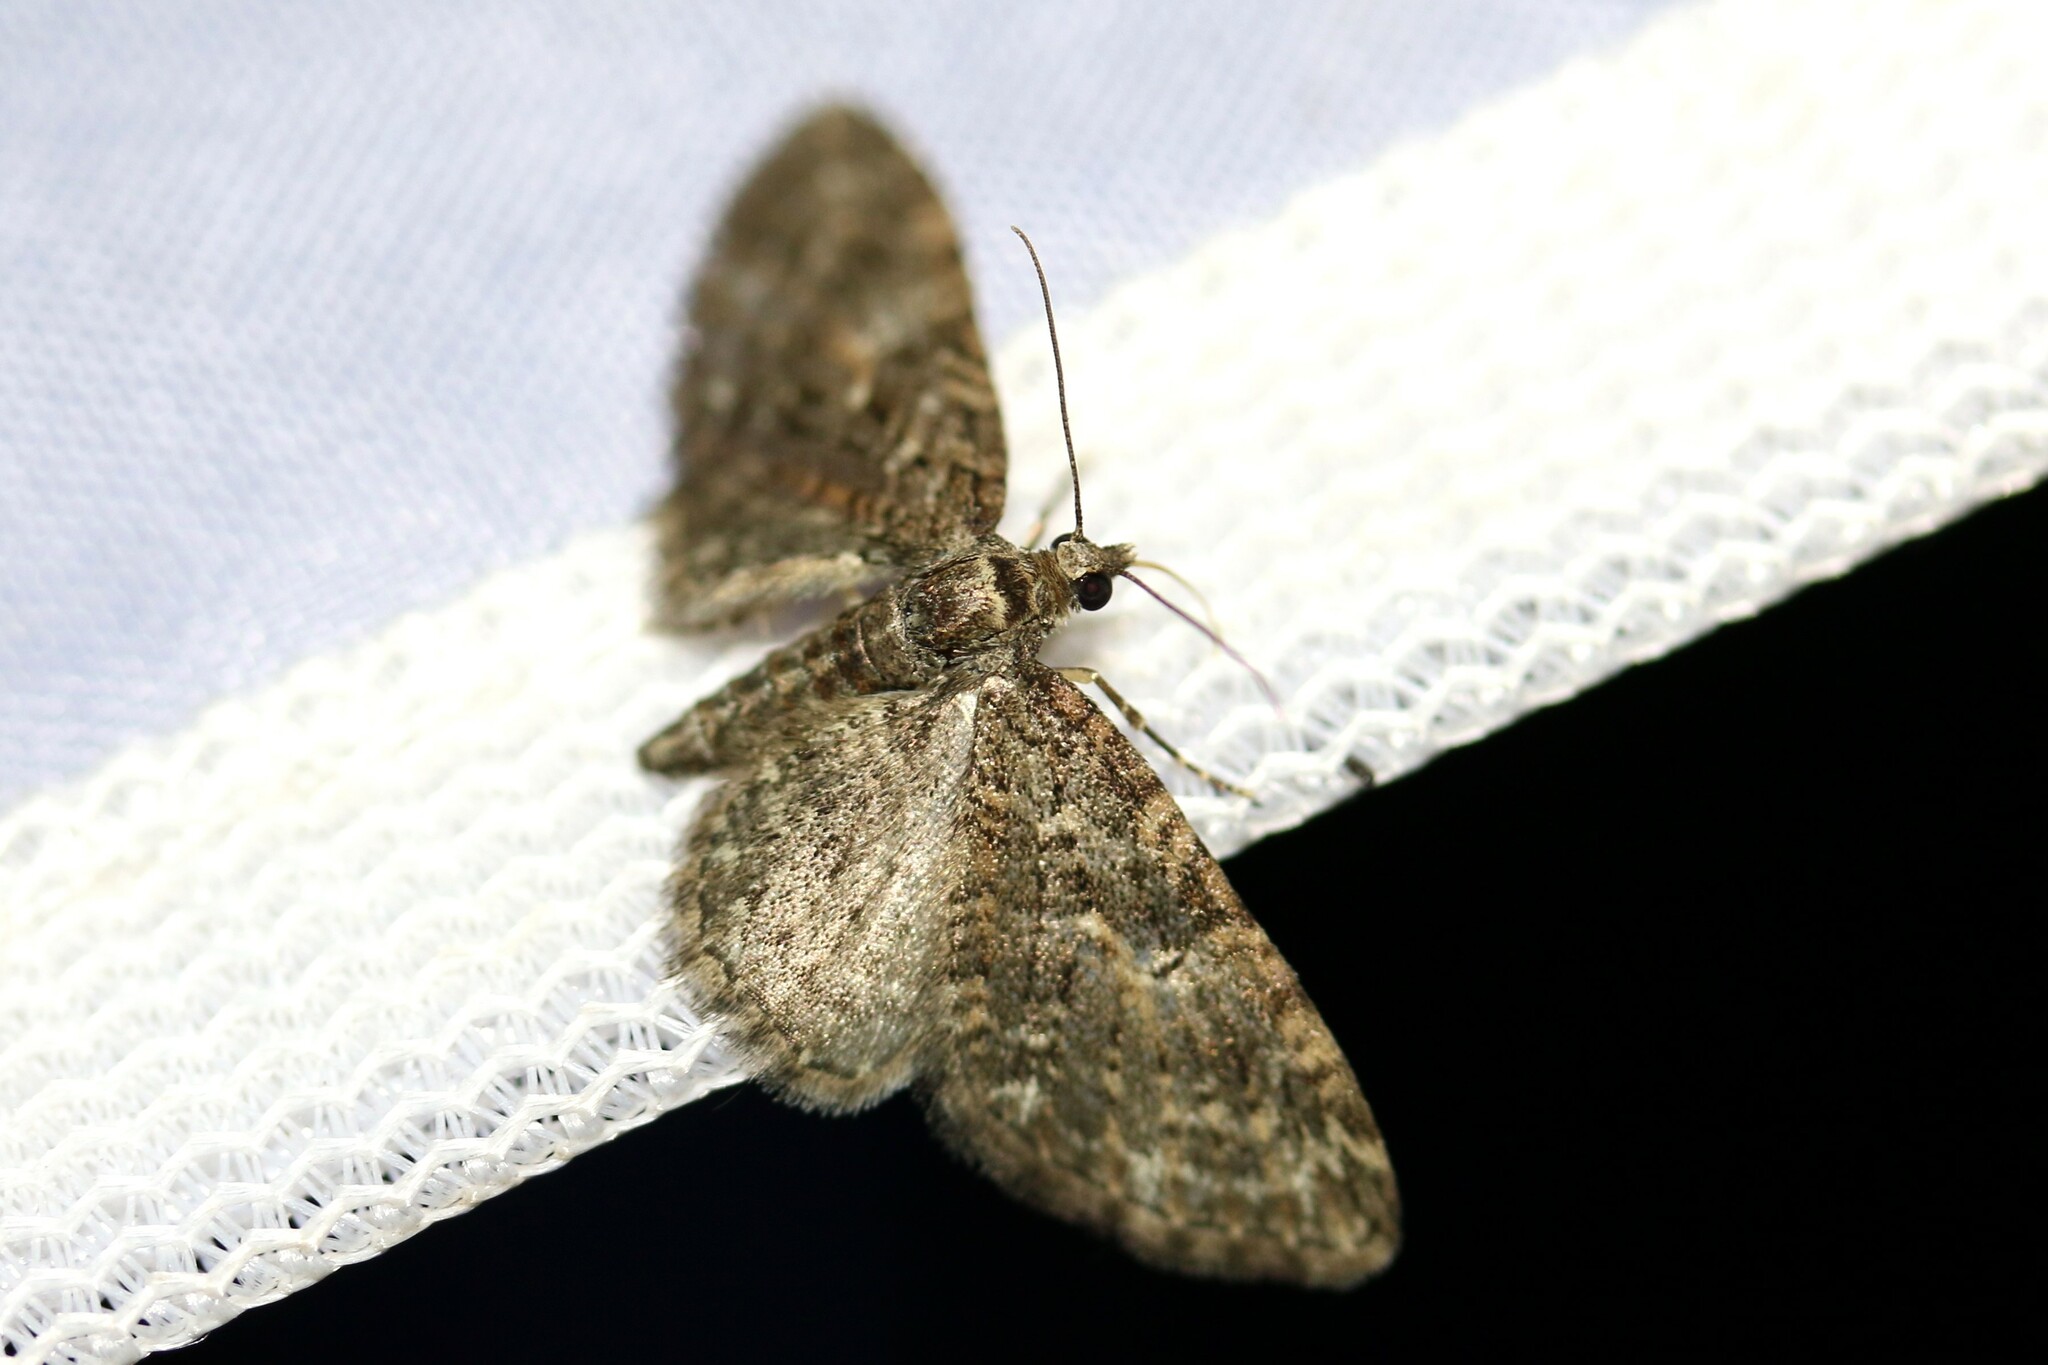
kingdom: Animalia
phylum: Arthropoda
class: Insecta
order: Lepidoptera
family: Geometridae
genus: Eupithecia
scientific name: Eupithecia abbreviata
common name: Brindled pug
